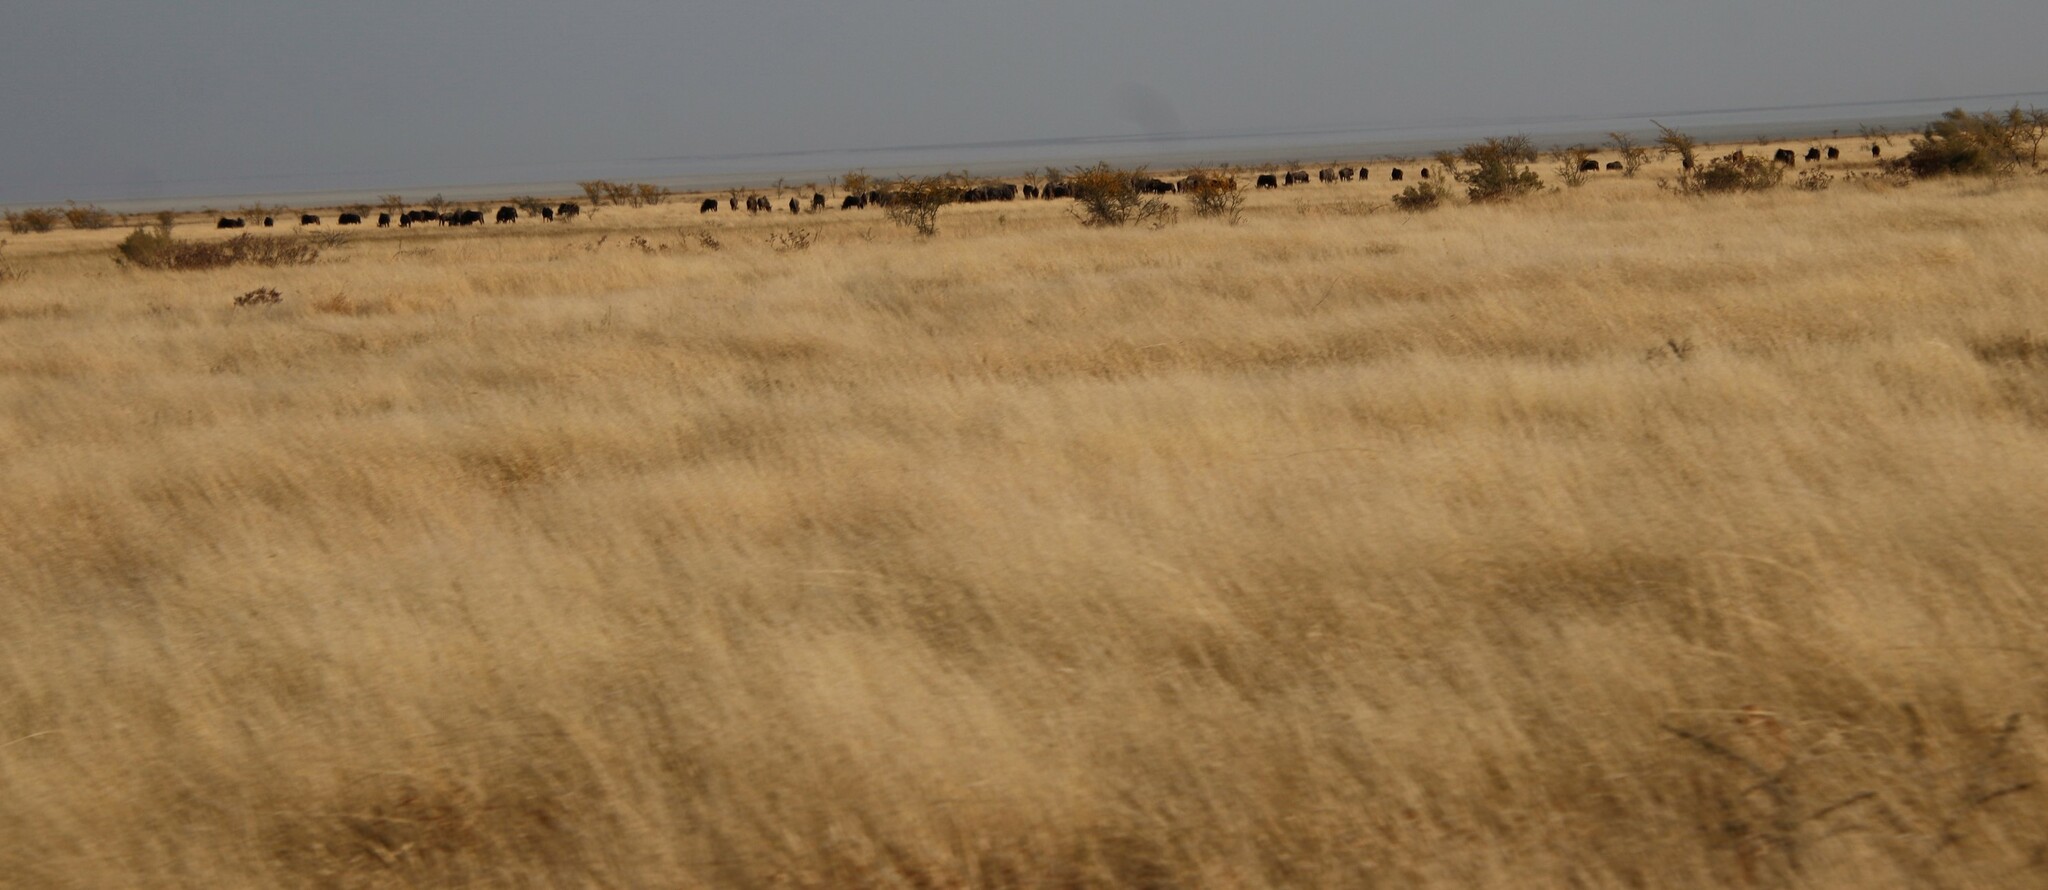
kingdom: Animalia
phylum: Chordata
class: Mammalia
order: Artiodactyla
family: Bovidae
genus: Connochaetes
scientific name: Connochaetes taurinus
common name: Blue wildebeest
